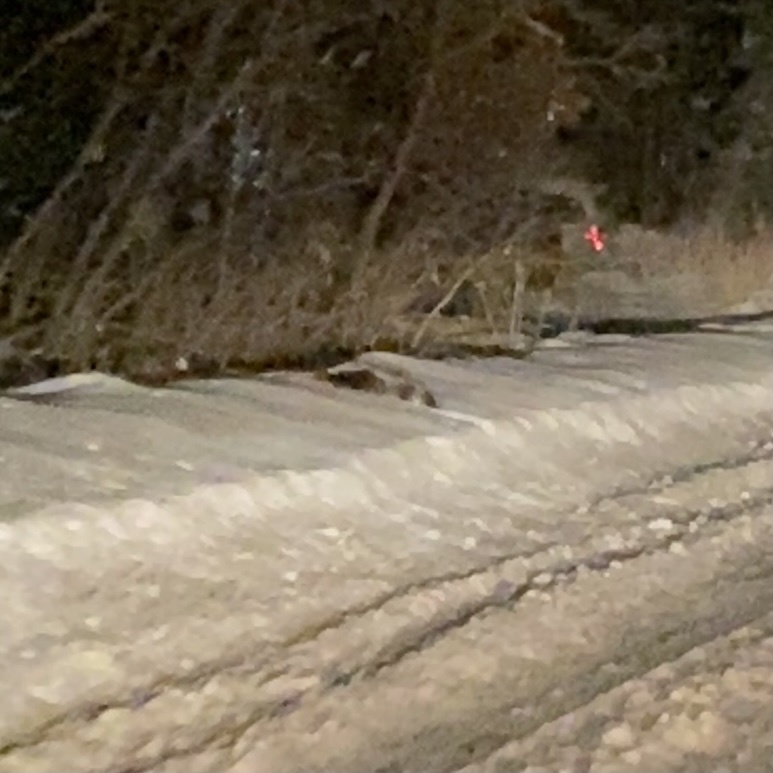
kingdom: Animalia
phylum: Chordata
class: Mammalia
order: Carnivora
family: Mephitidae
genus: Mephitis
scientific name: Mephitis mephitis
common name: Striped skunk
